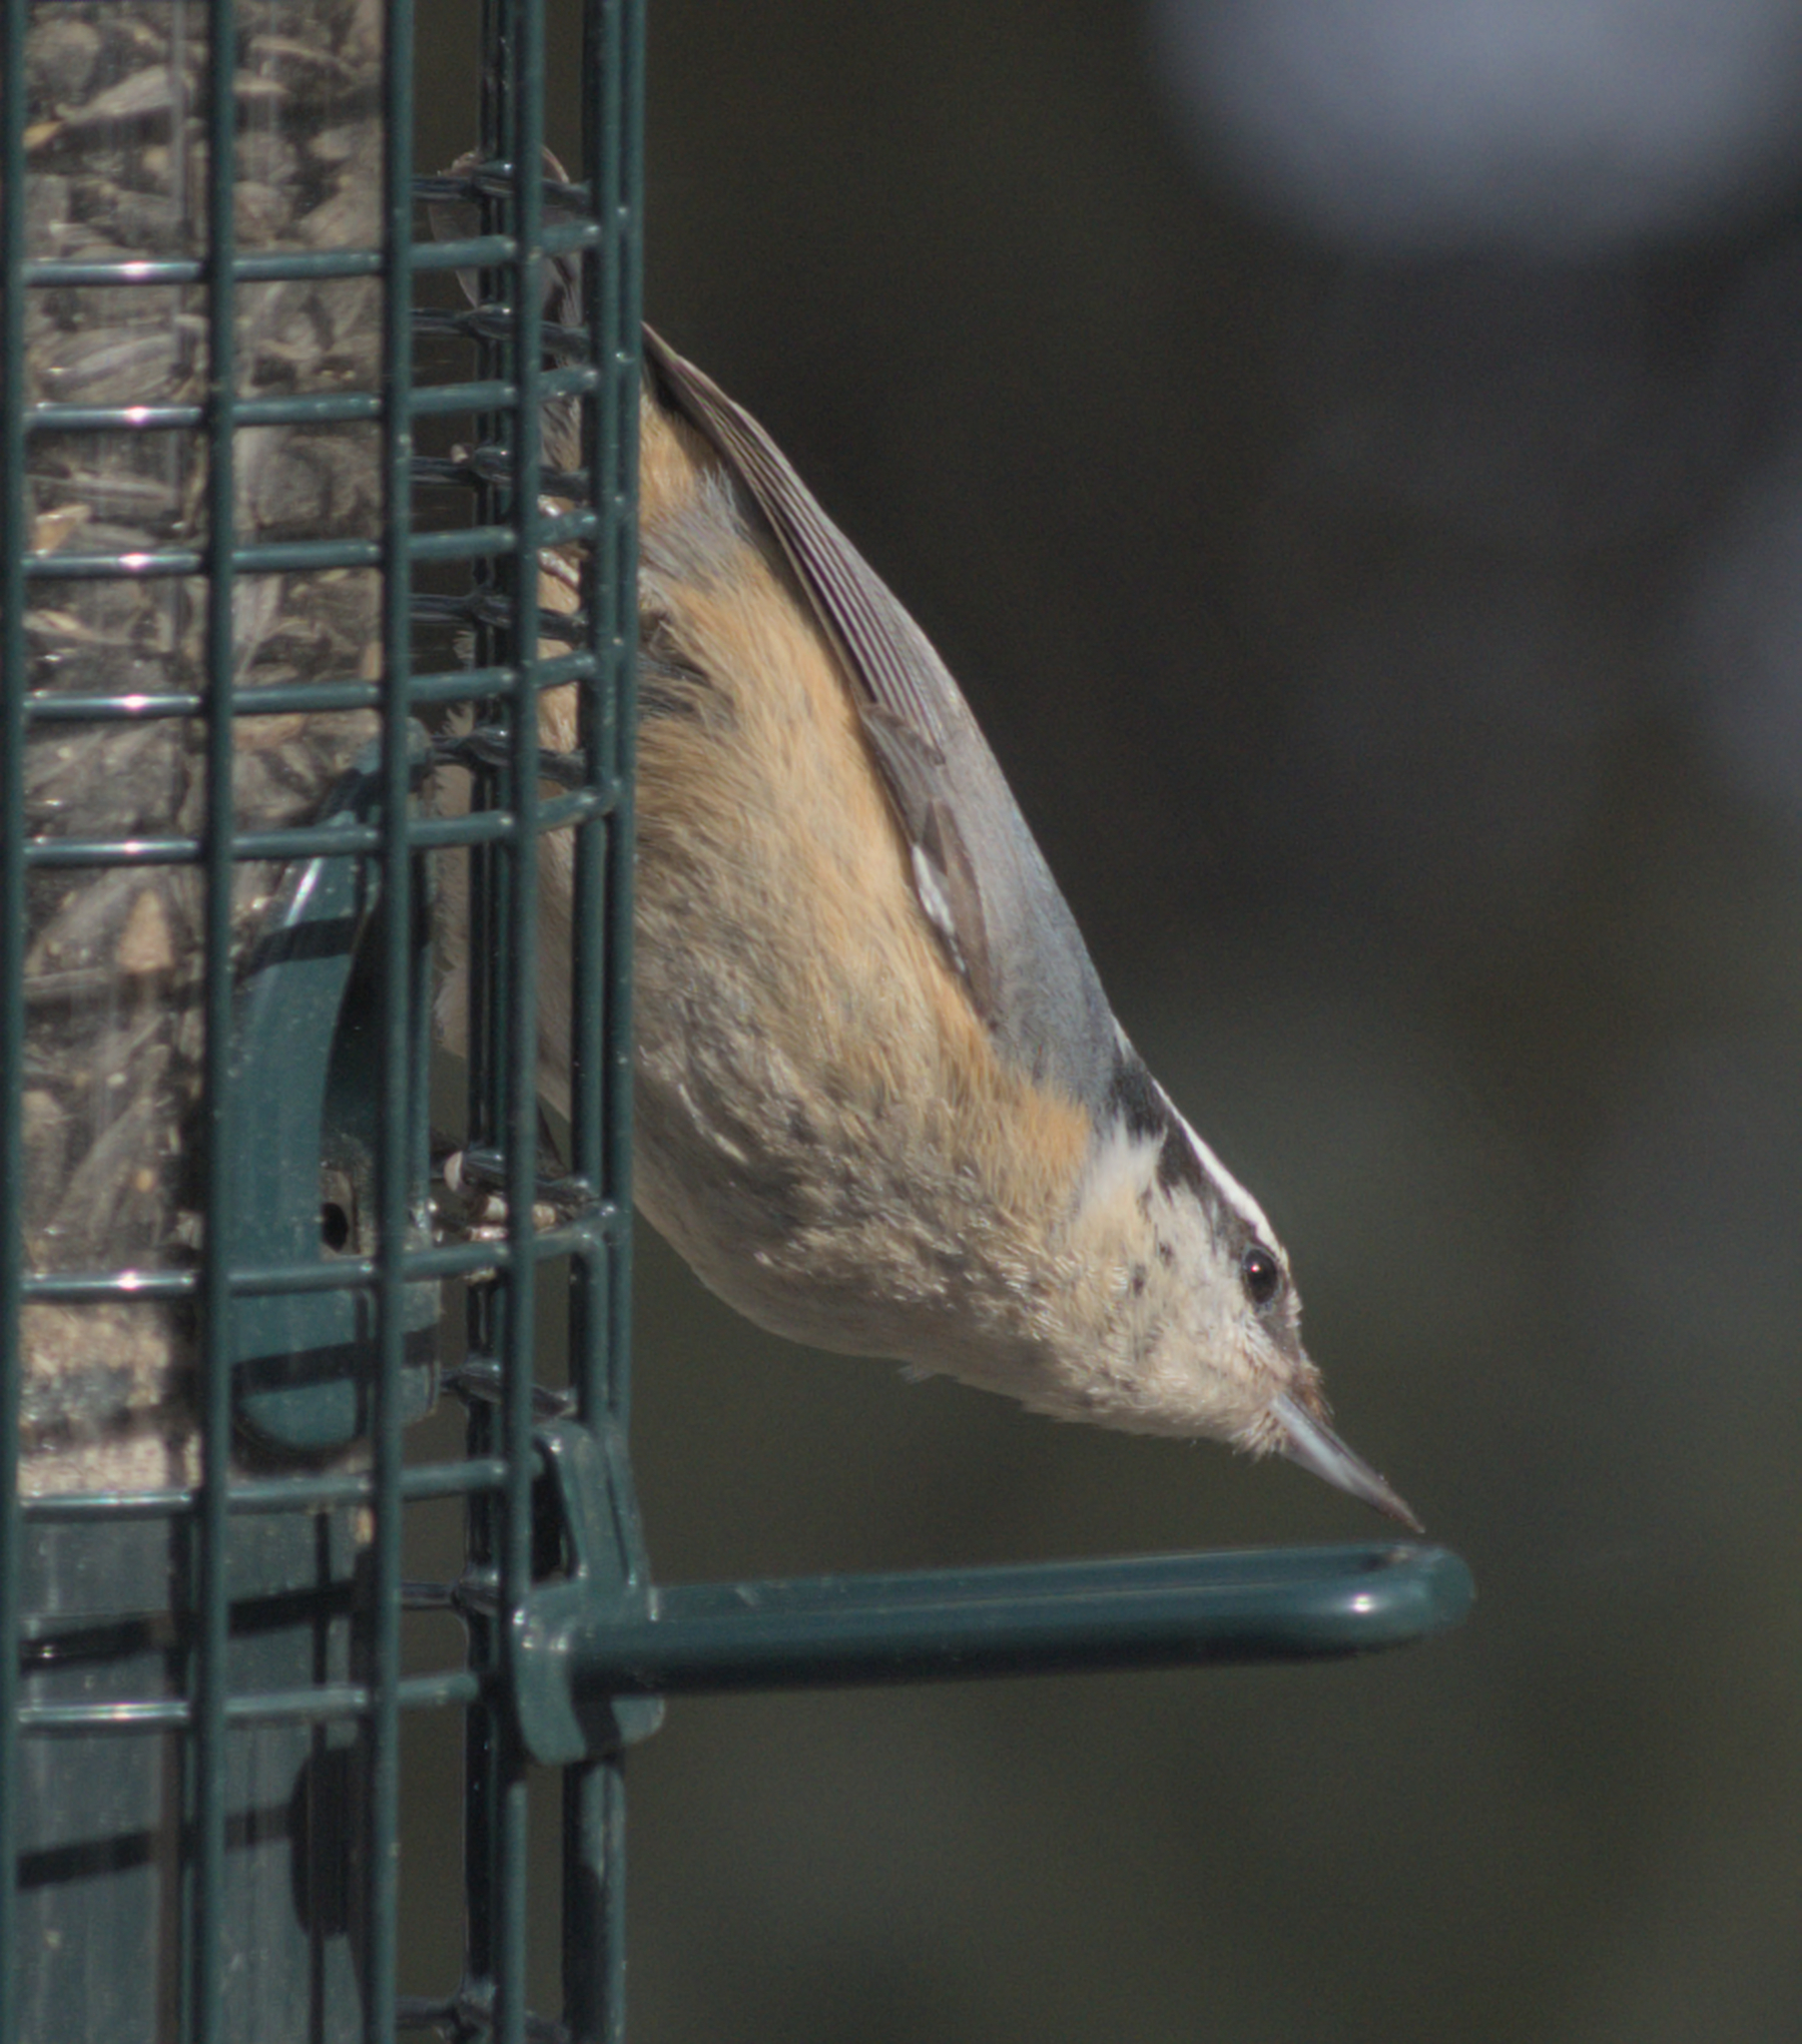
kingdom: Animalia
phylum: Chordata
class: Aves
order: Passeriformes
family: Sittidae
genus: Sitta
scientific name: Sitta canadensis
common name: Red-breasted nuthatch
